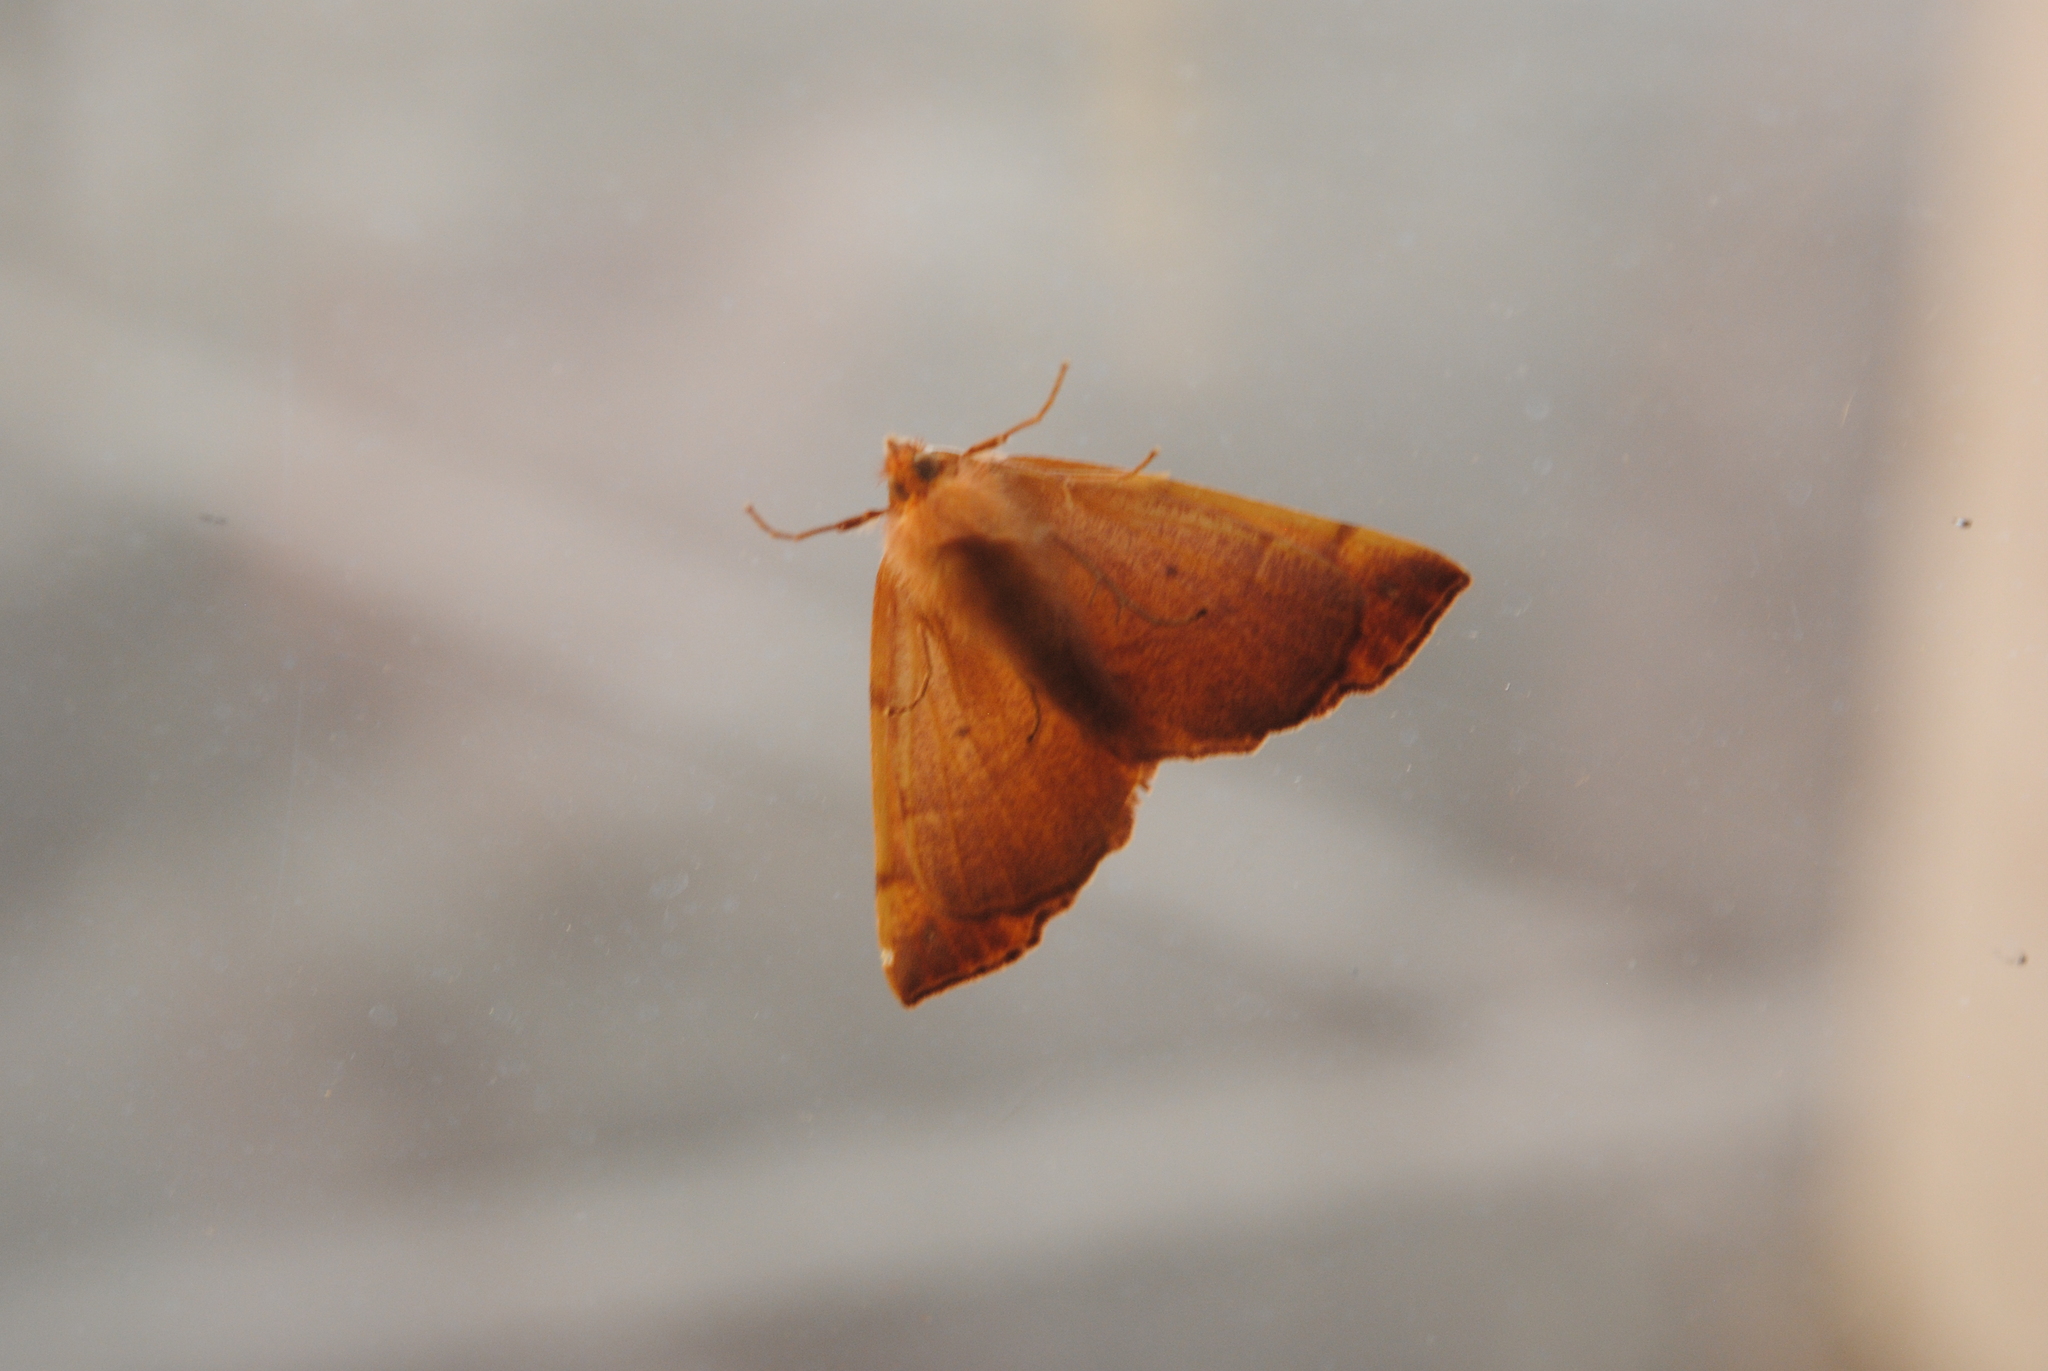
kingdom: Animalia
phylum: Arthropoda
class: Insecta
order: Lepidoptera
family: Geometridae
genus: Colotois
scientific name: Colotois pennaria
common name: Feathered thorn
